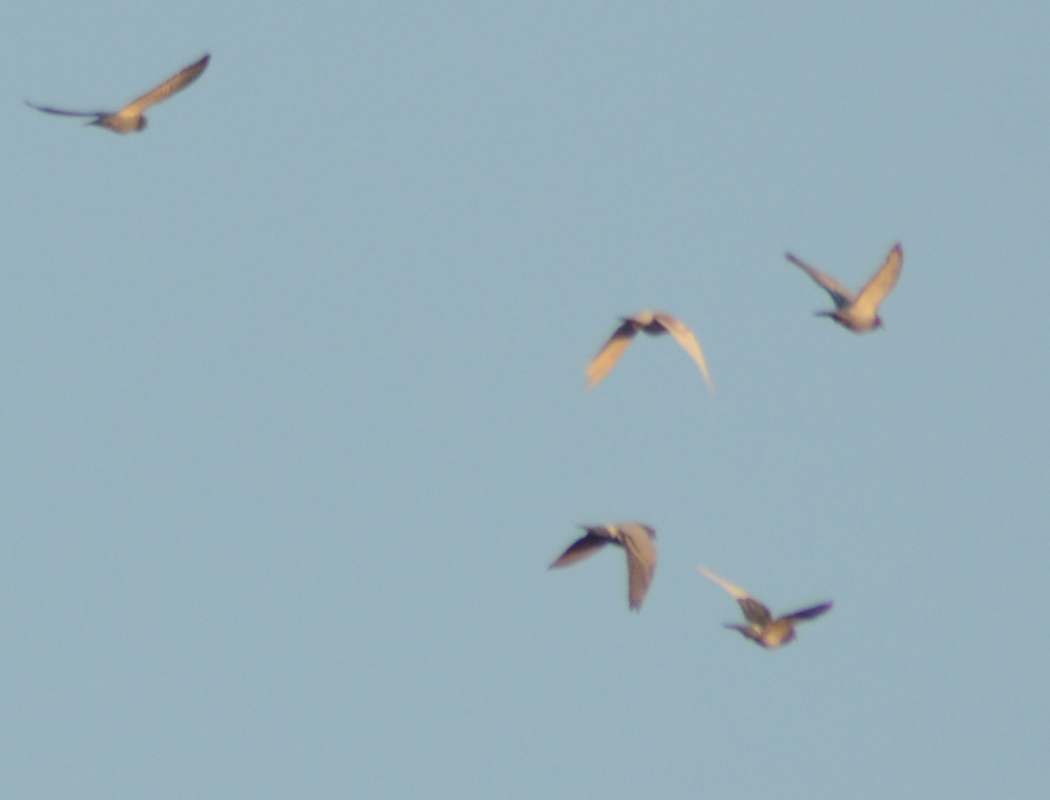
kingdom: Animalia
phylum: Chordata
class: Aves
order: Columbiformes
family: Columbidae
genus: Columba
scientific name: Columba livia
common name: Rock pigeon
